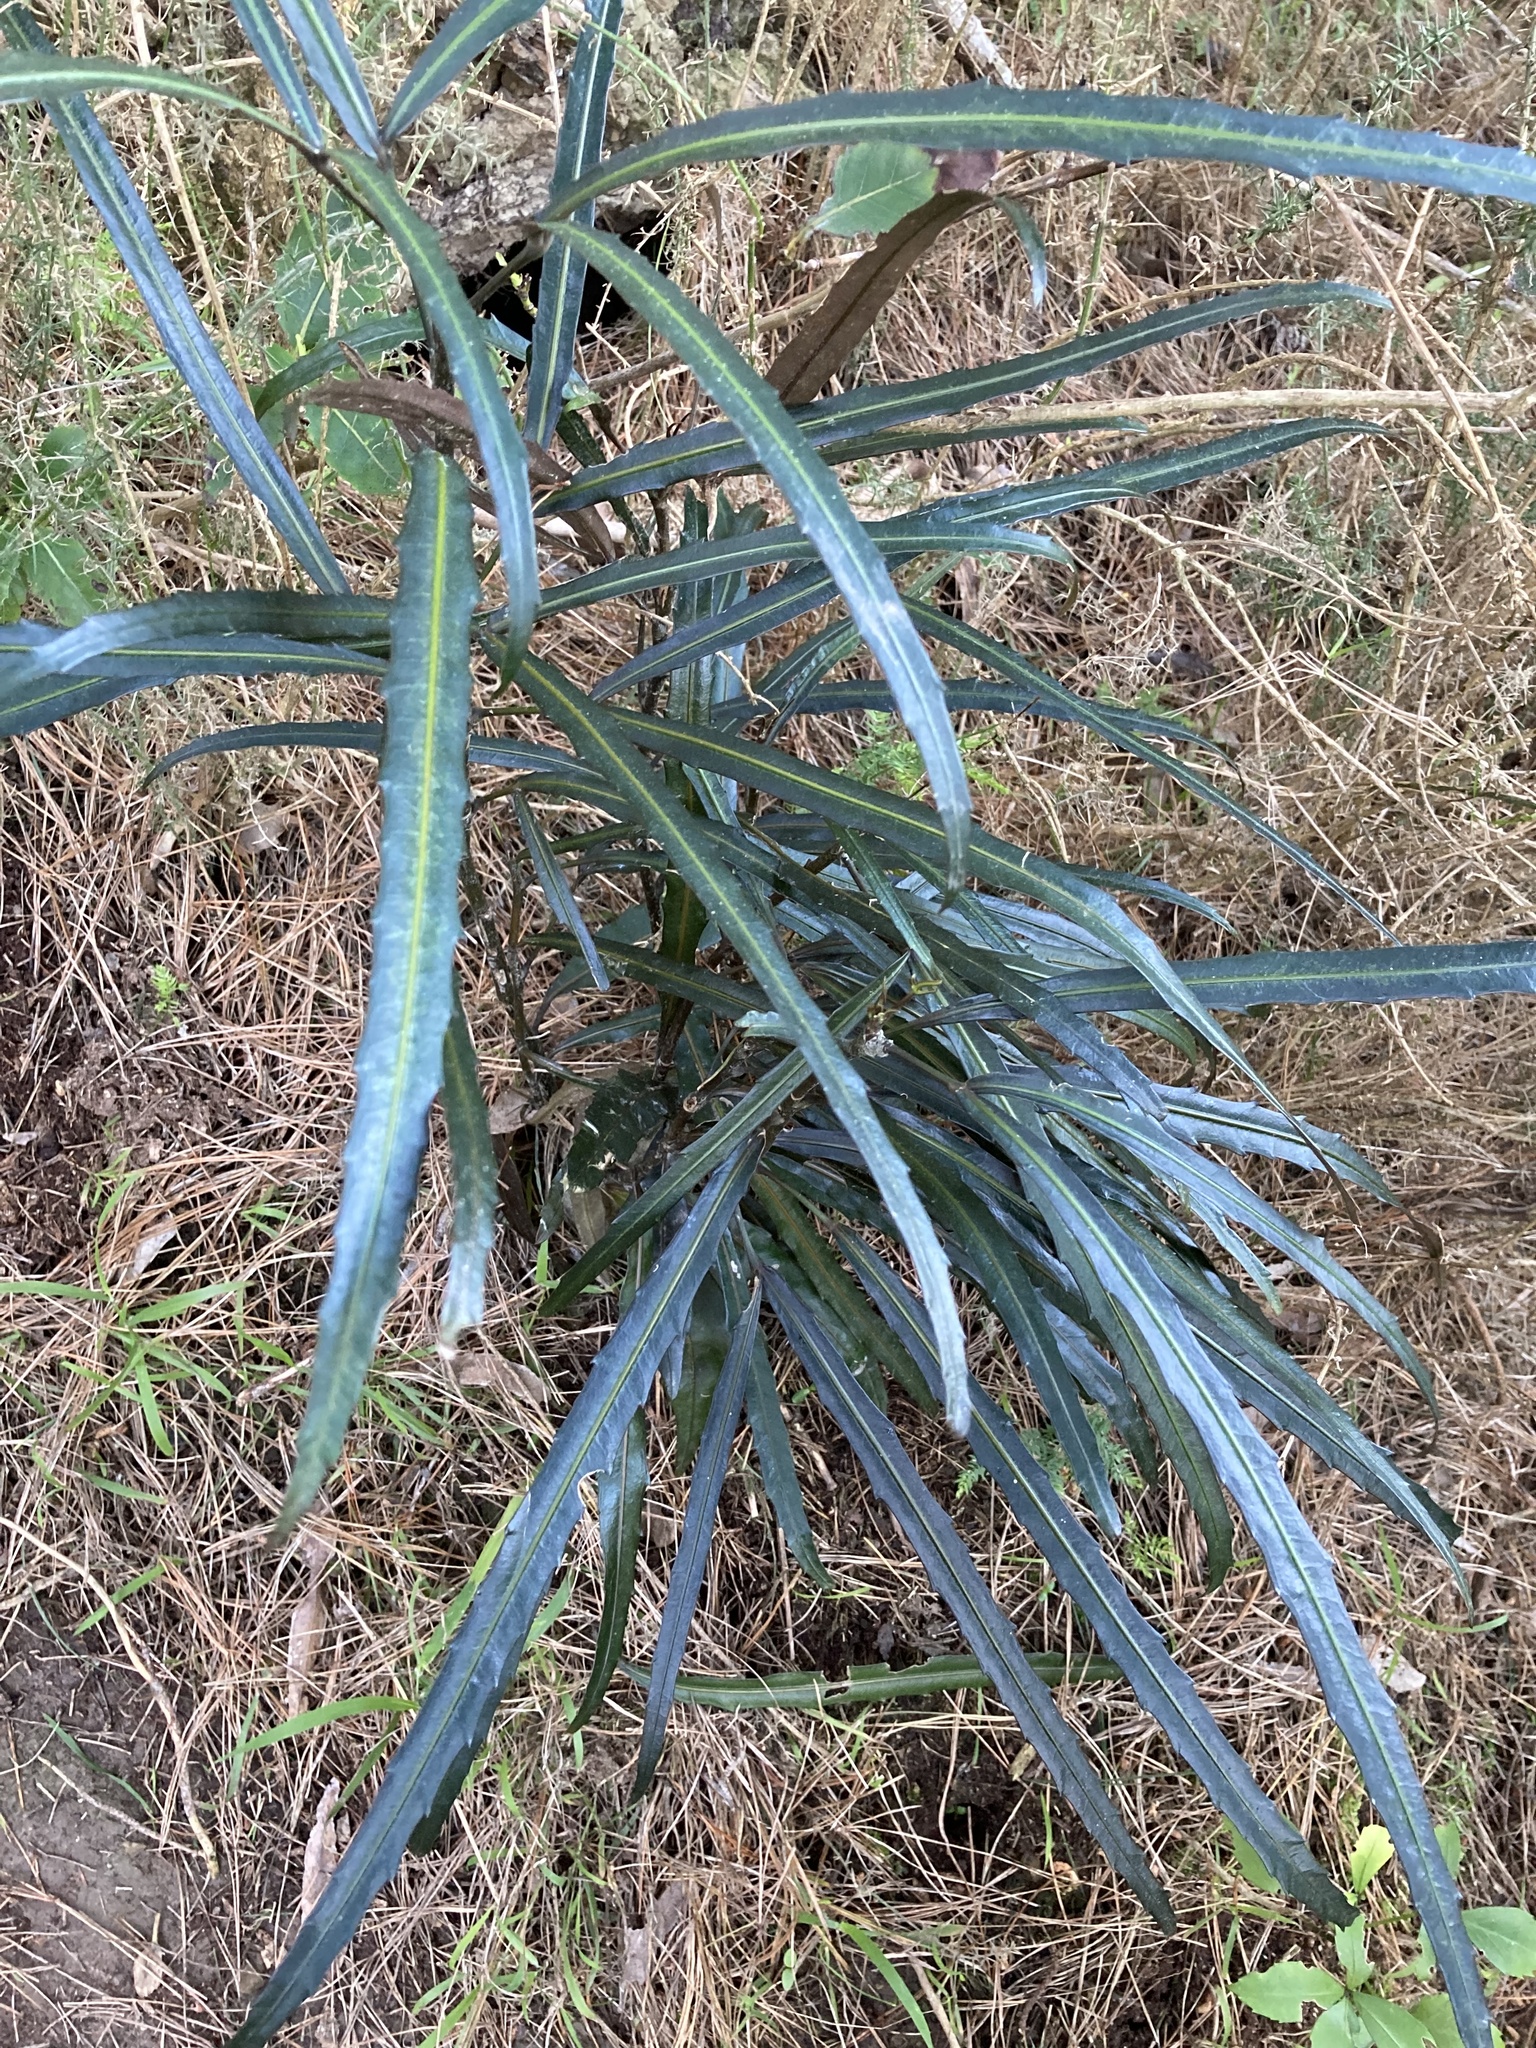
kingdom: Plantae
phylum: Tracheophyta
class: Magnoliopsida
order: Apiales
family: Araliaceae
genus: Pseudopanax
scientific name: Pseudopanax
